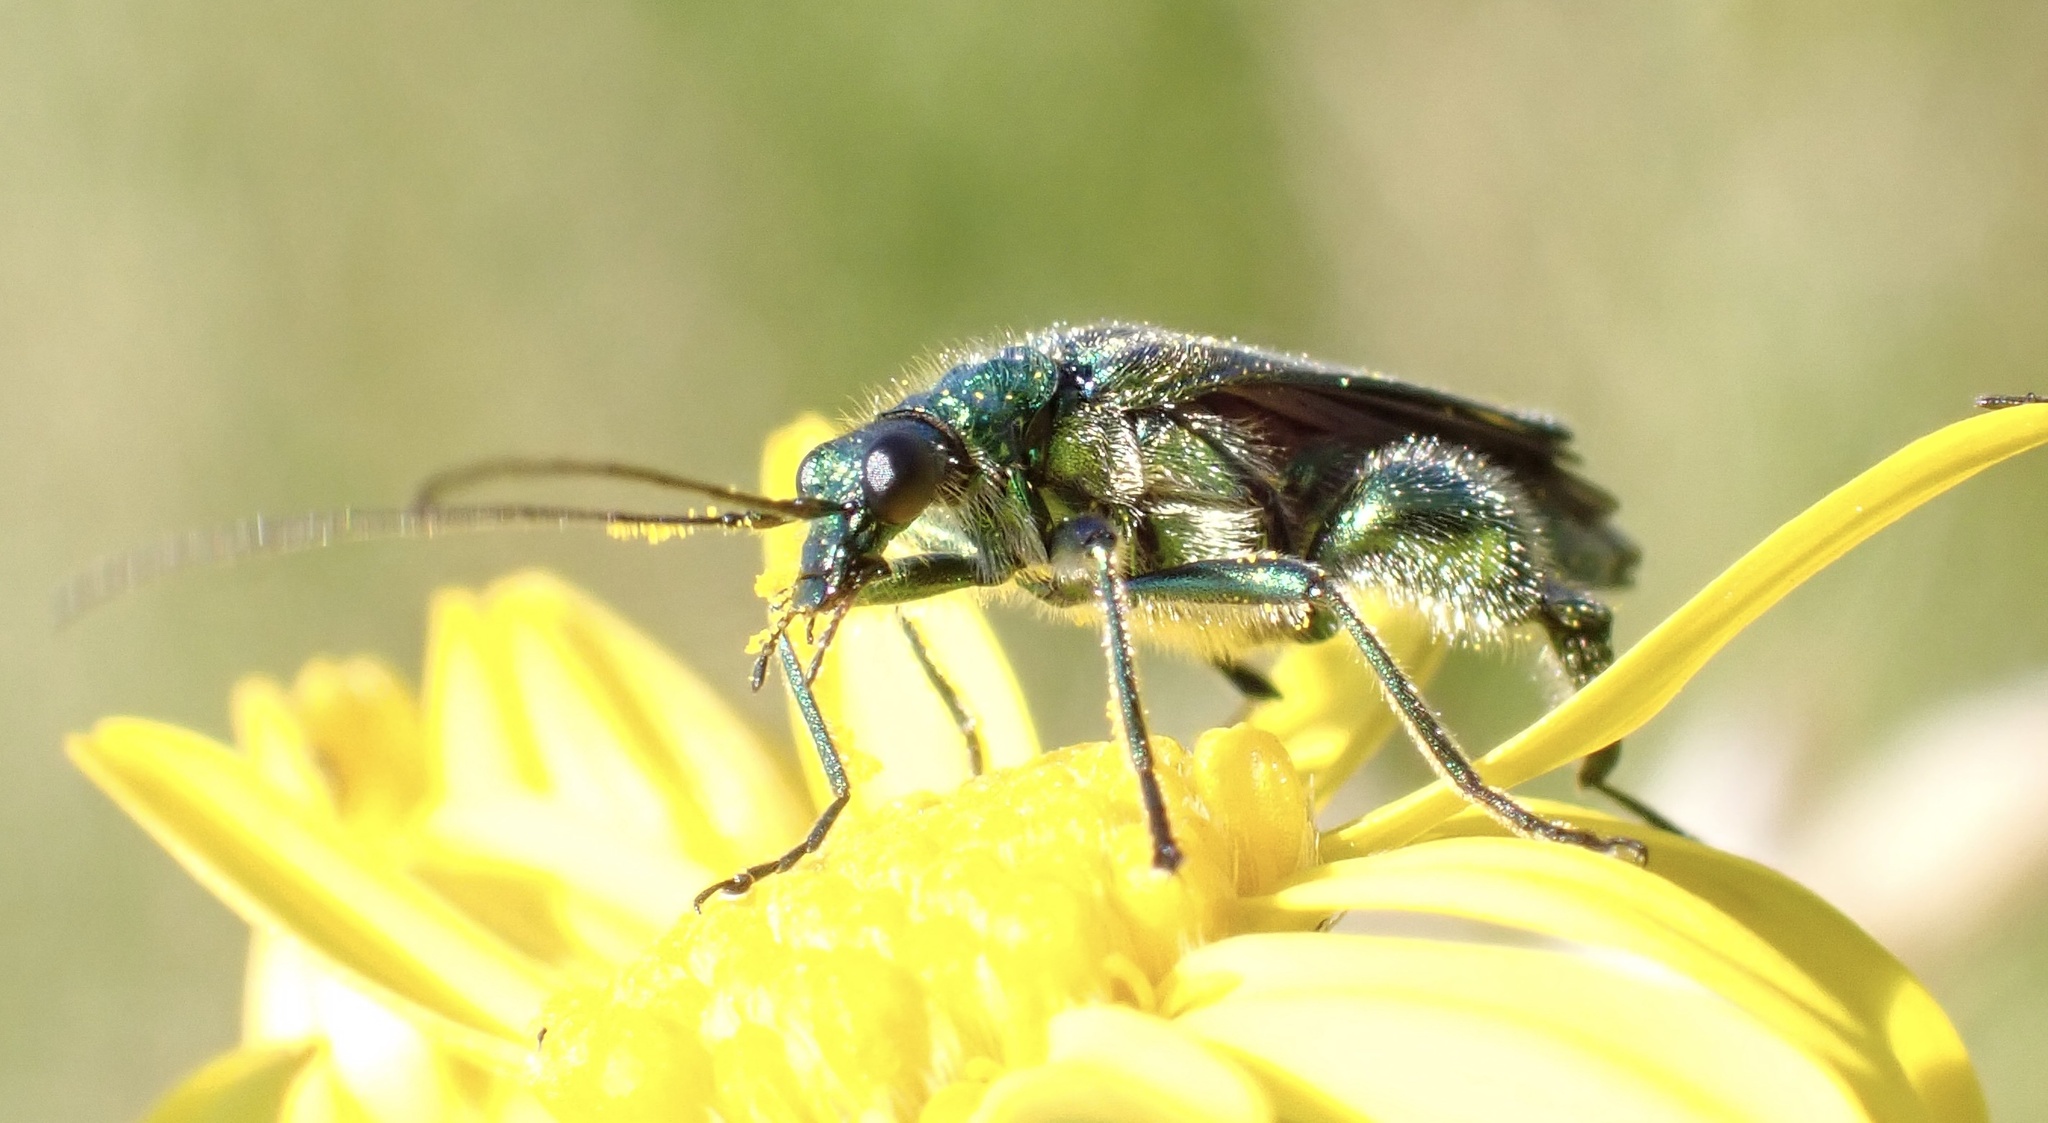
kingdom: Animalia
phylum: Arthropoda
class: Insecta
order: Coleoptera
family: Oedemeridae
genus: Oedemera
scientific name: Oedemera nobilis
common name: Swollen-thighed beetle
